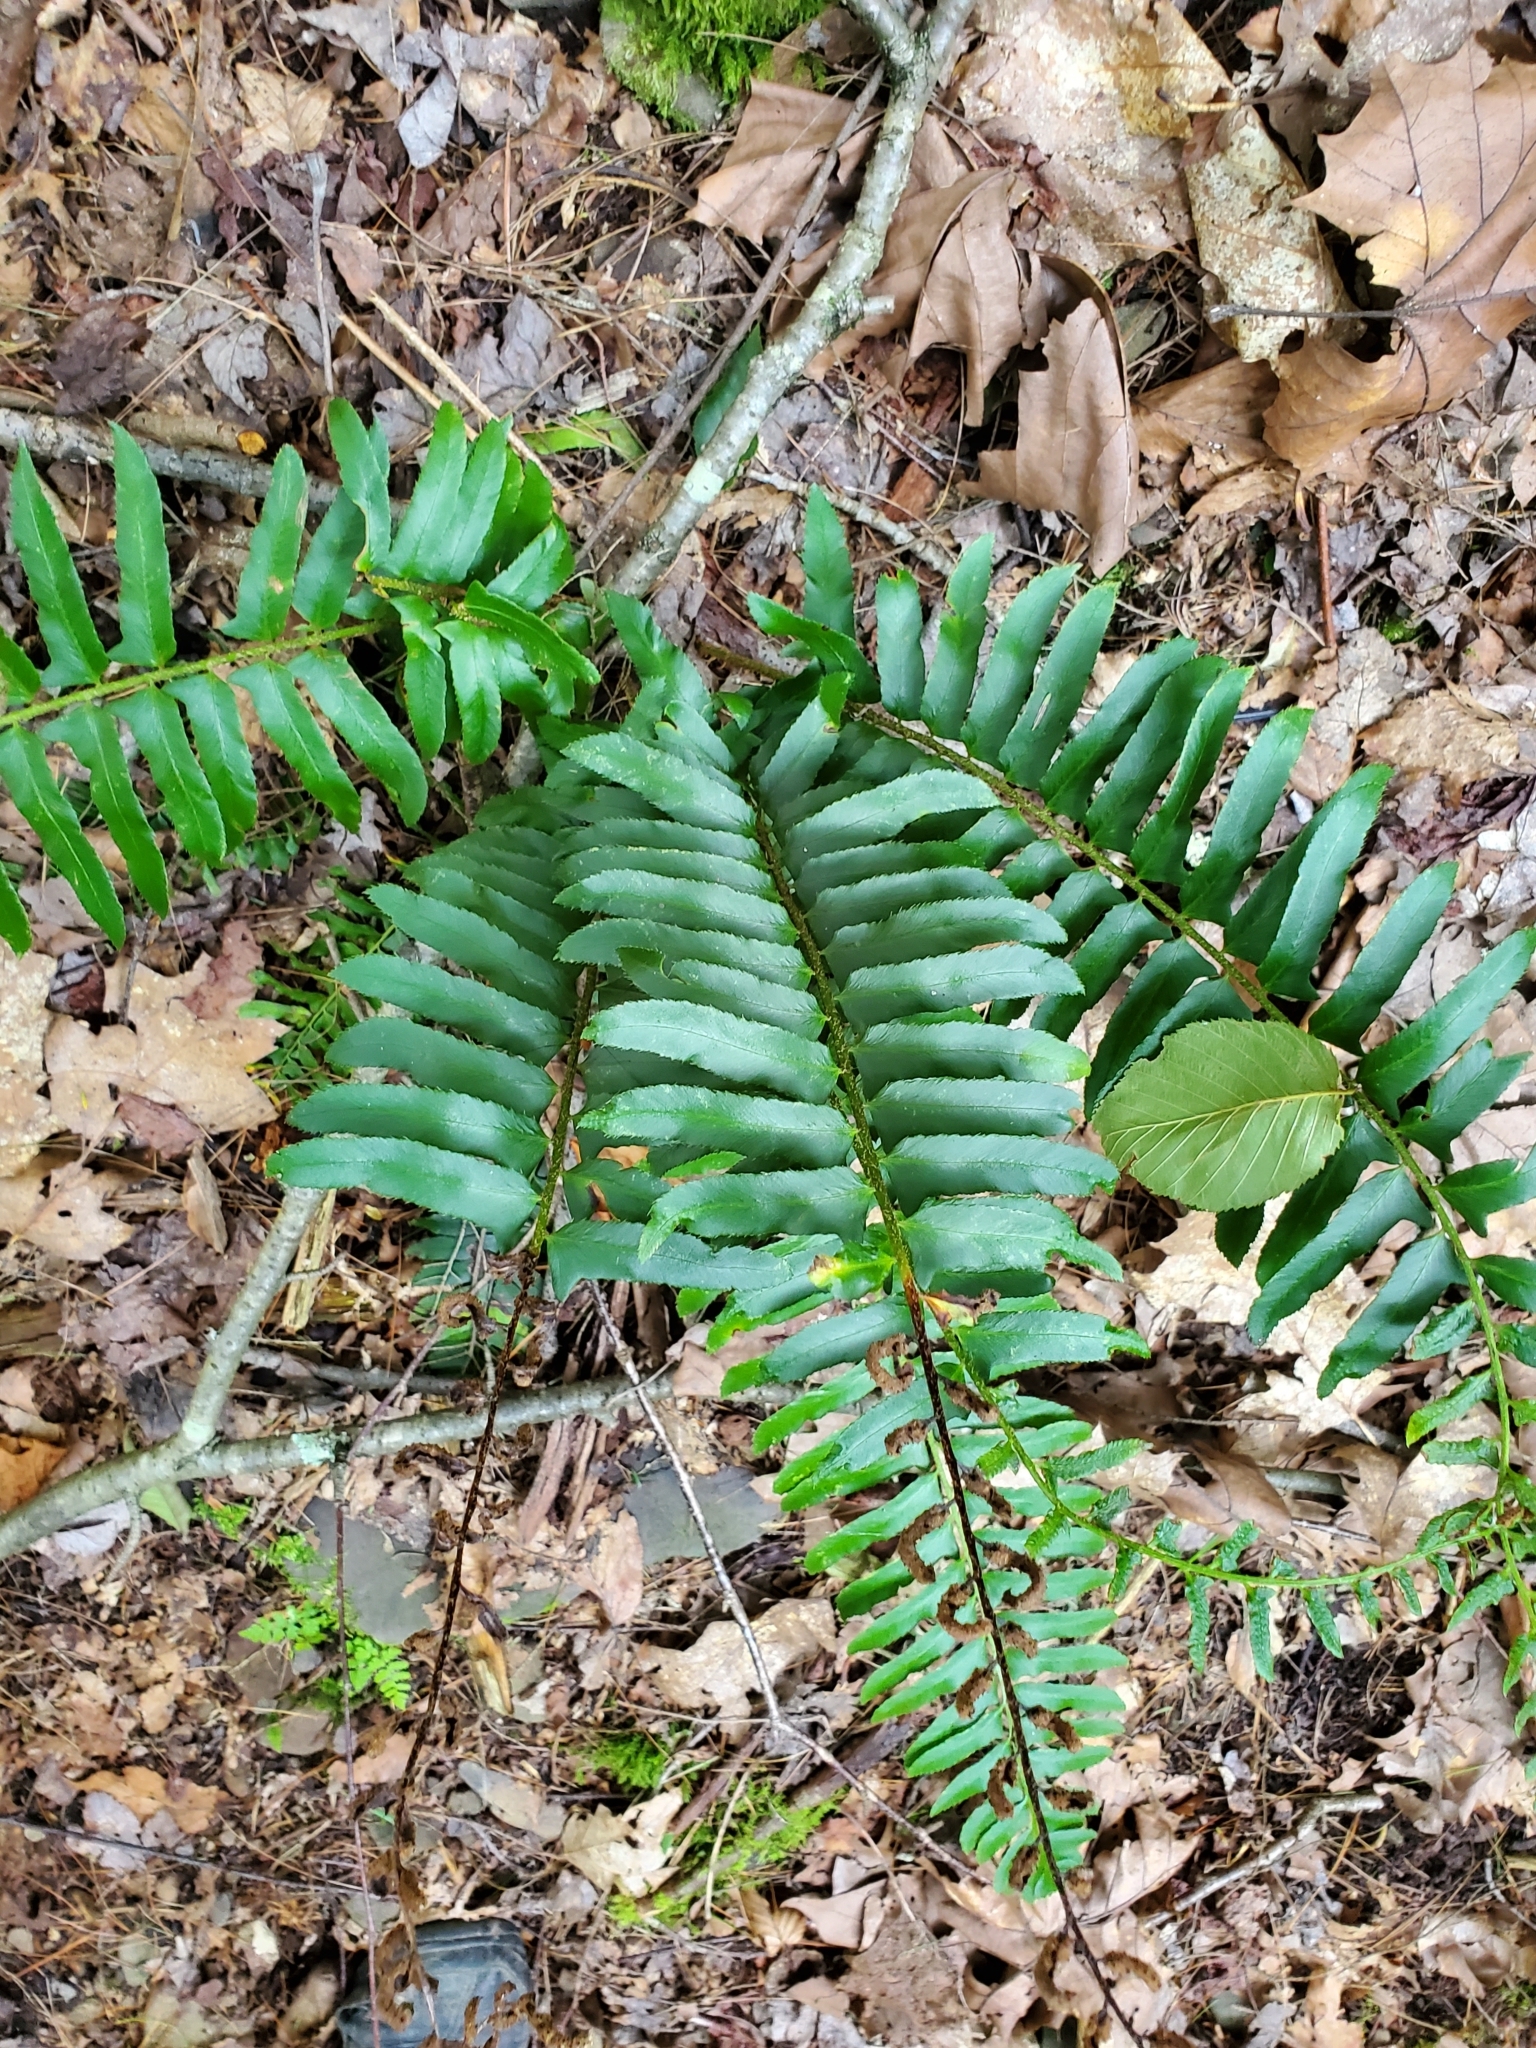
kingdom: Plantae
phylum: Tracheophyta
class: Polypodiopsida
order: Polypodiales
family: Dryopteridaceae
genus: Polystichum
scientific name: Polystichum acrostichoides
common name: Christmas fern
